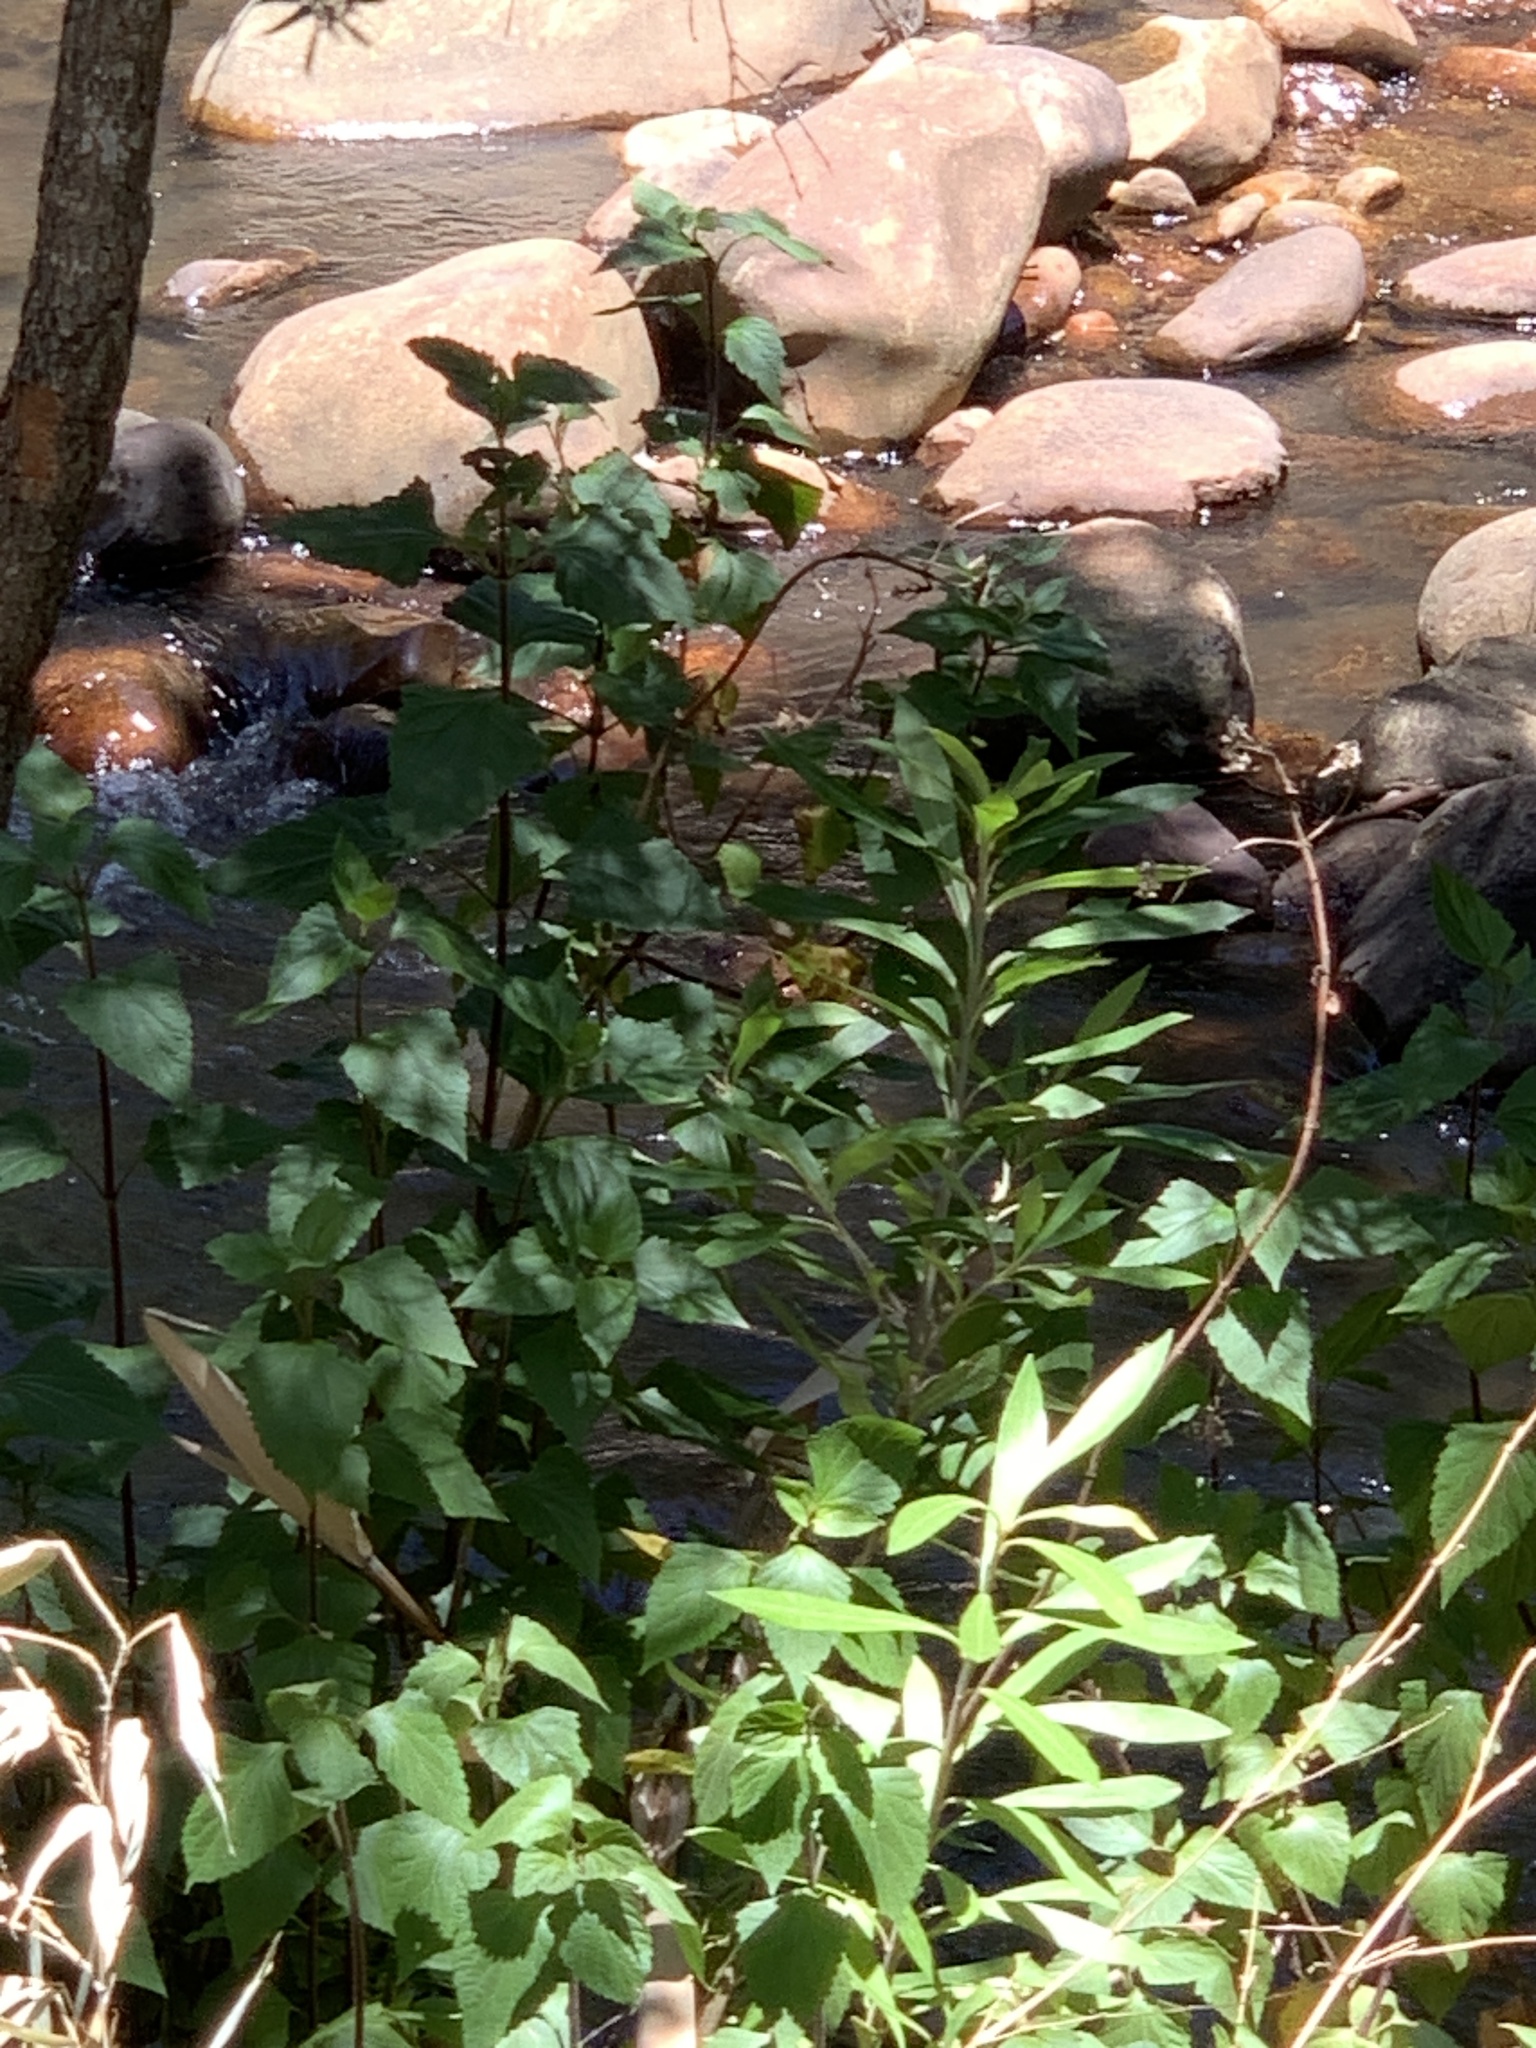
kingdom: Plantae
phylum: Tracheophyta
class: Magnoliopsida
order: Asterales
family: Asteraceae
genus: Ageratina
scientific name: Ageratina adenophora
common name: Sticky snakeroot
